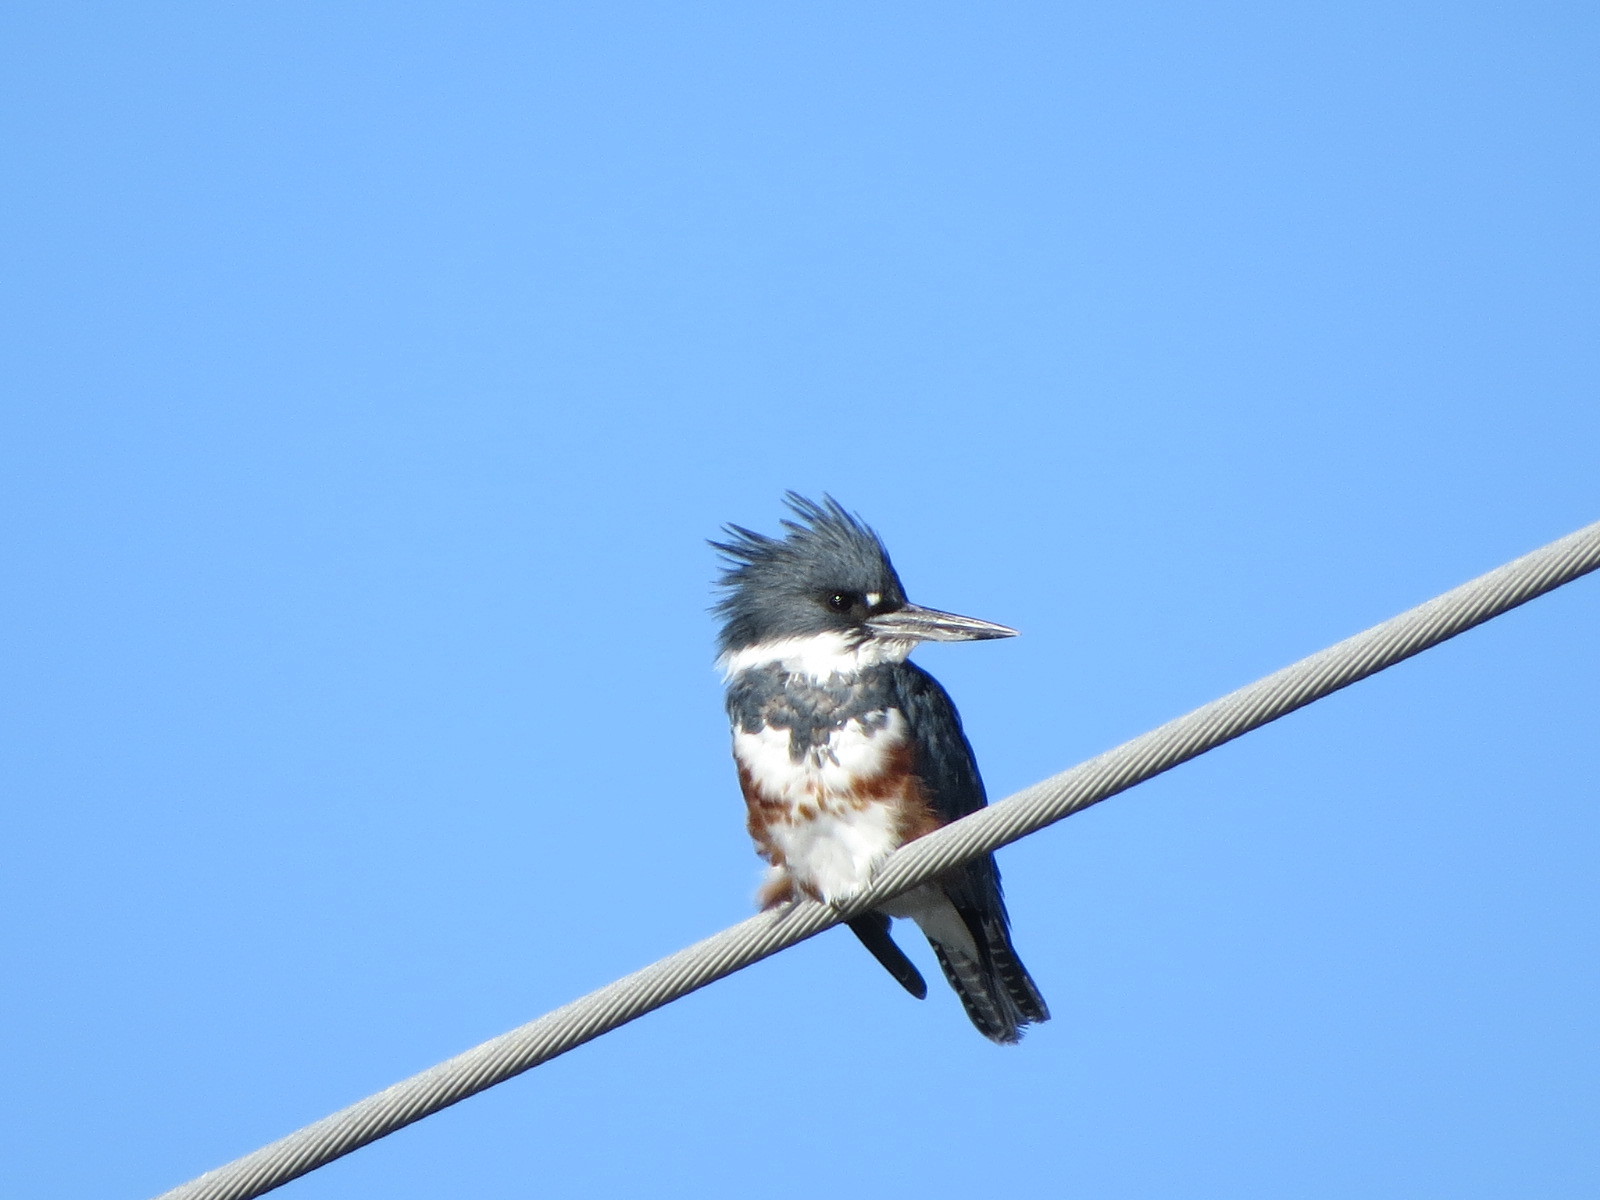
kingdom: Animalia
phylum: Chordata
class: Aves
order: Coraciiformes
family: Alcedinidae
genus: Megaceryle
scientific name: Megaceryle alcyon
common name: Belted kingfisher
